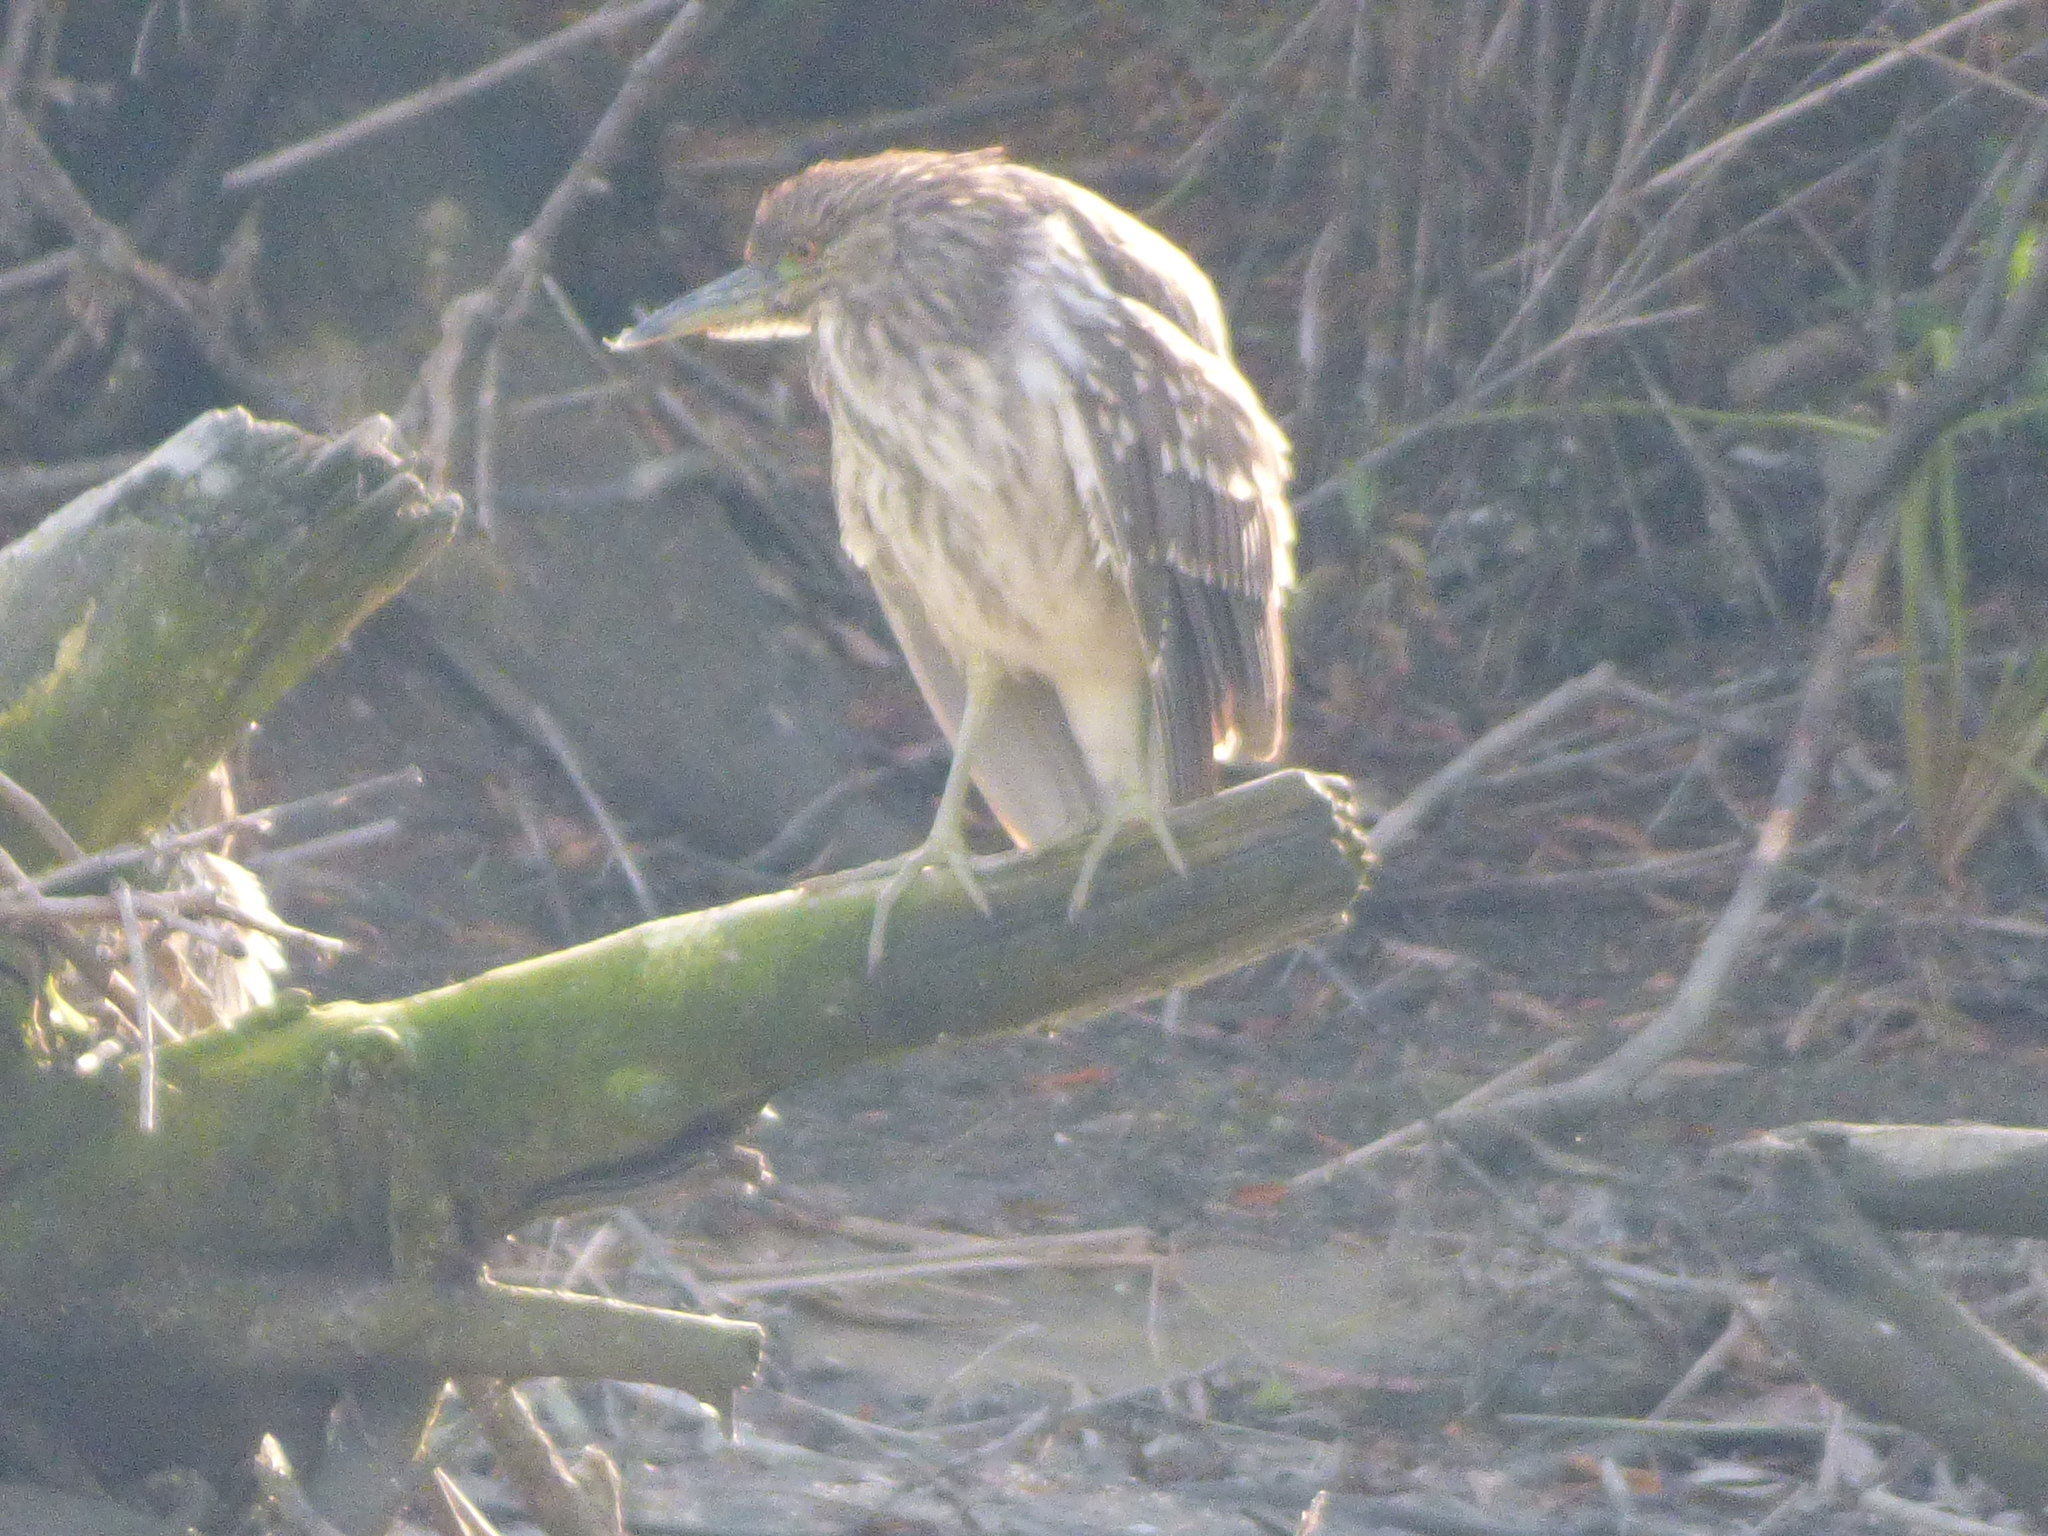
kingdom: Animalia
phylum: Chordata
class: Aves
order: Pelecaniformes
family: Ardeidae
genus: Nycticorax
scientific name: Nycticorax nycticorax
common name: Black-crowned night heron
